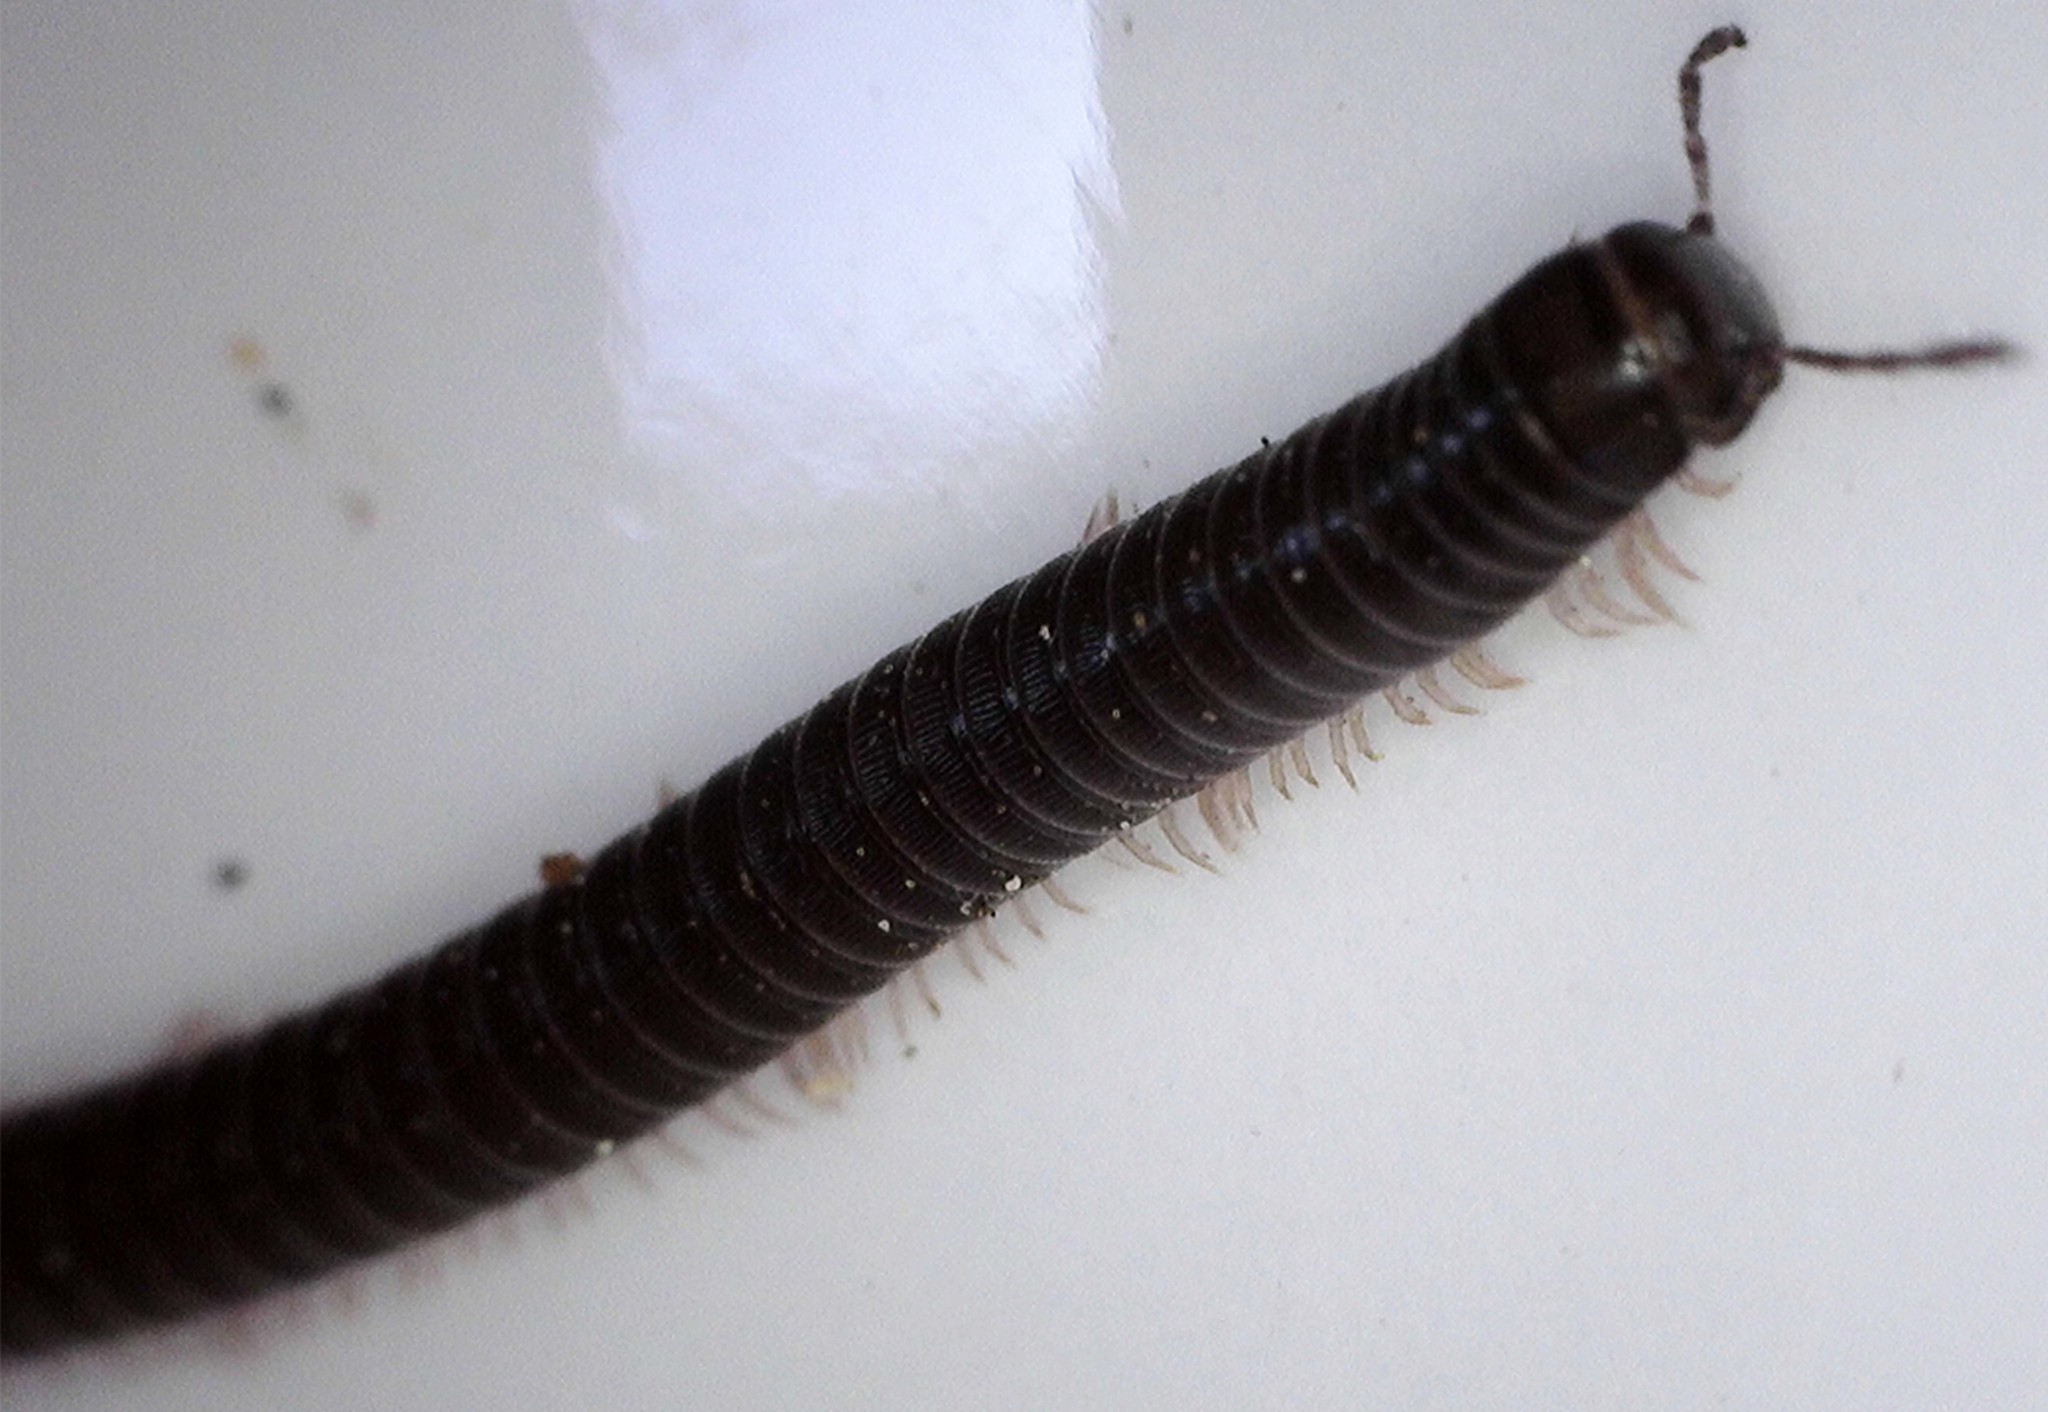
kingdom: Animalia
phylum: Arthropoda
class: Diplopoda
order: Julida
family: Julidae
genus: Ommatoiulus
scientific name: Ommatoiulus moreleti
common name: Portuguese millipede
